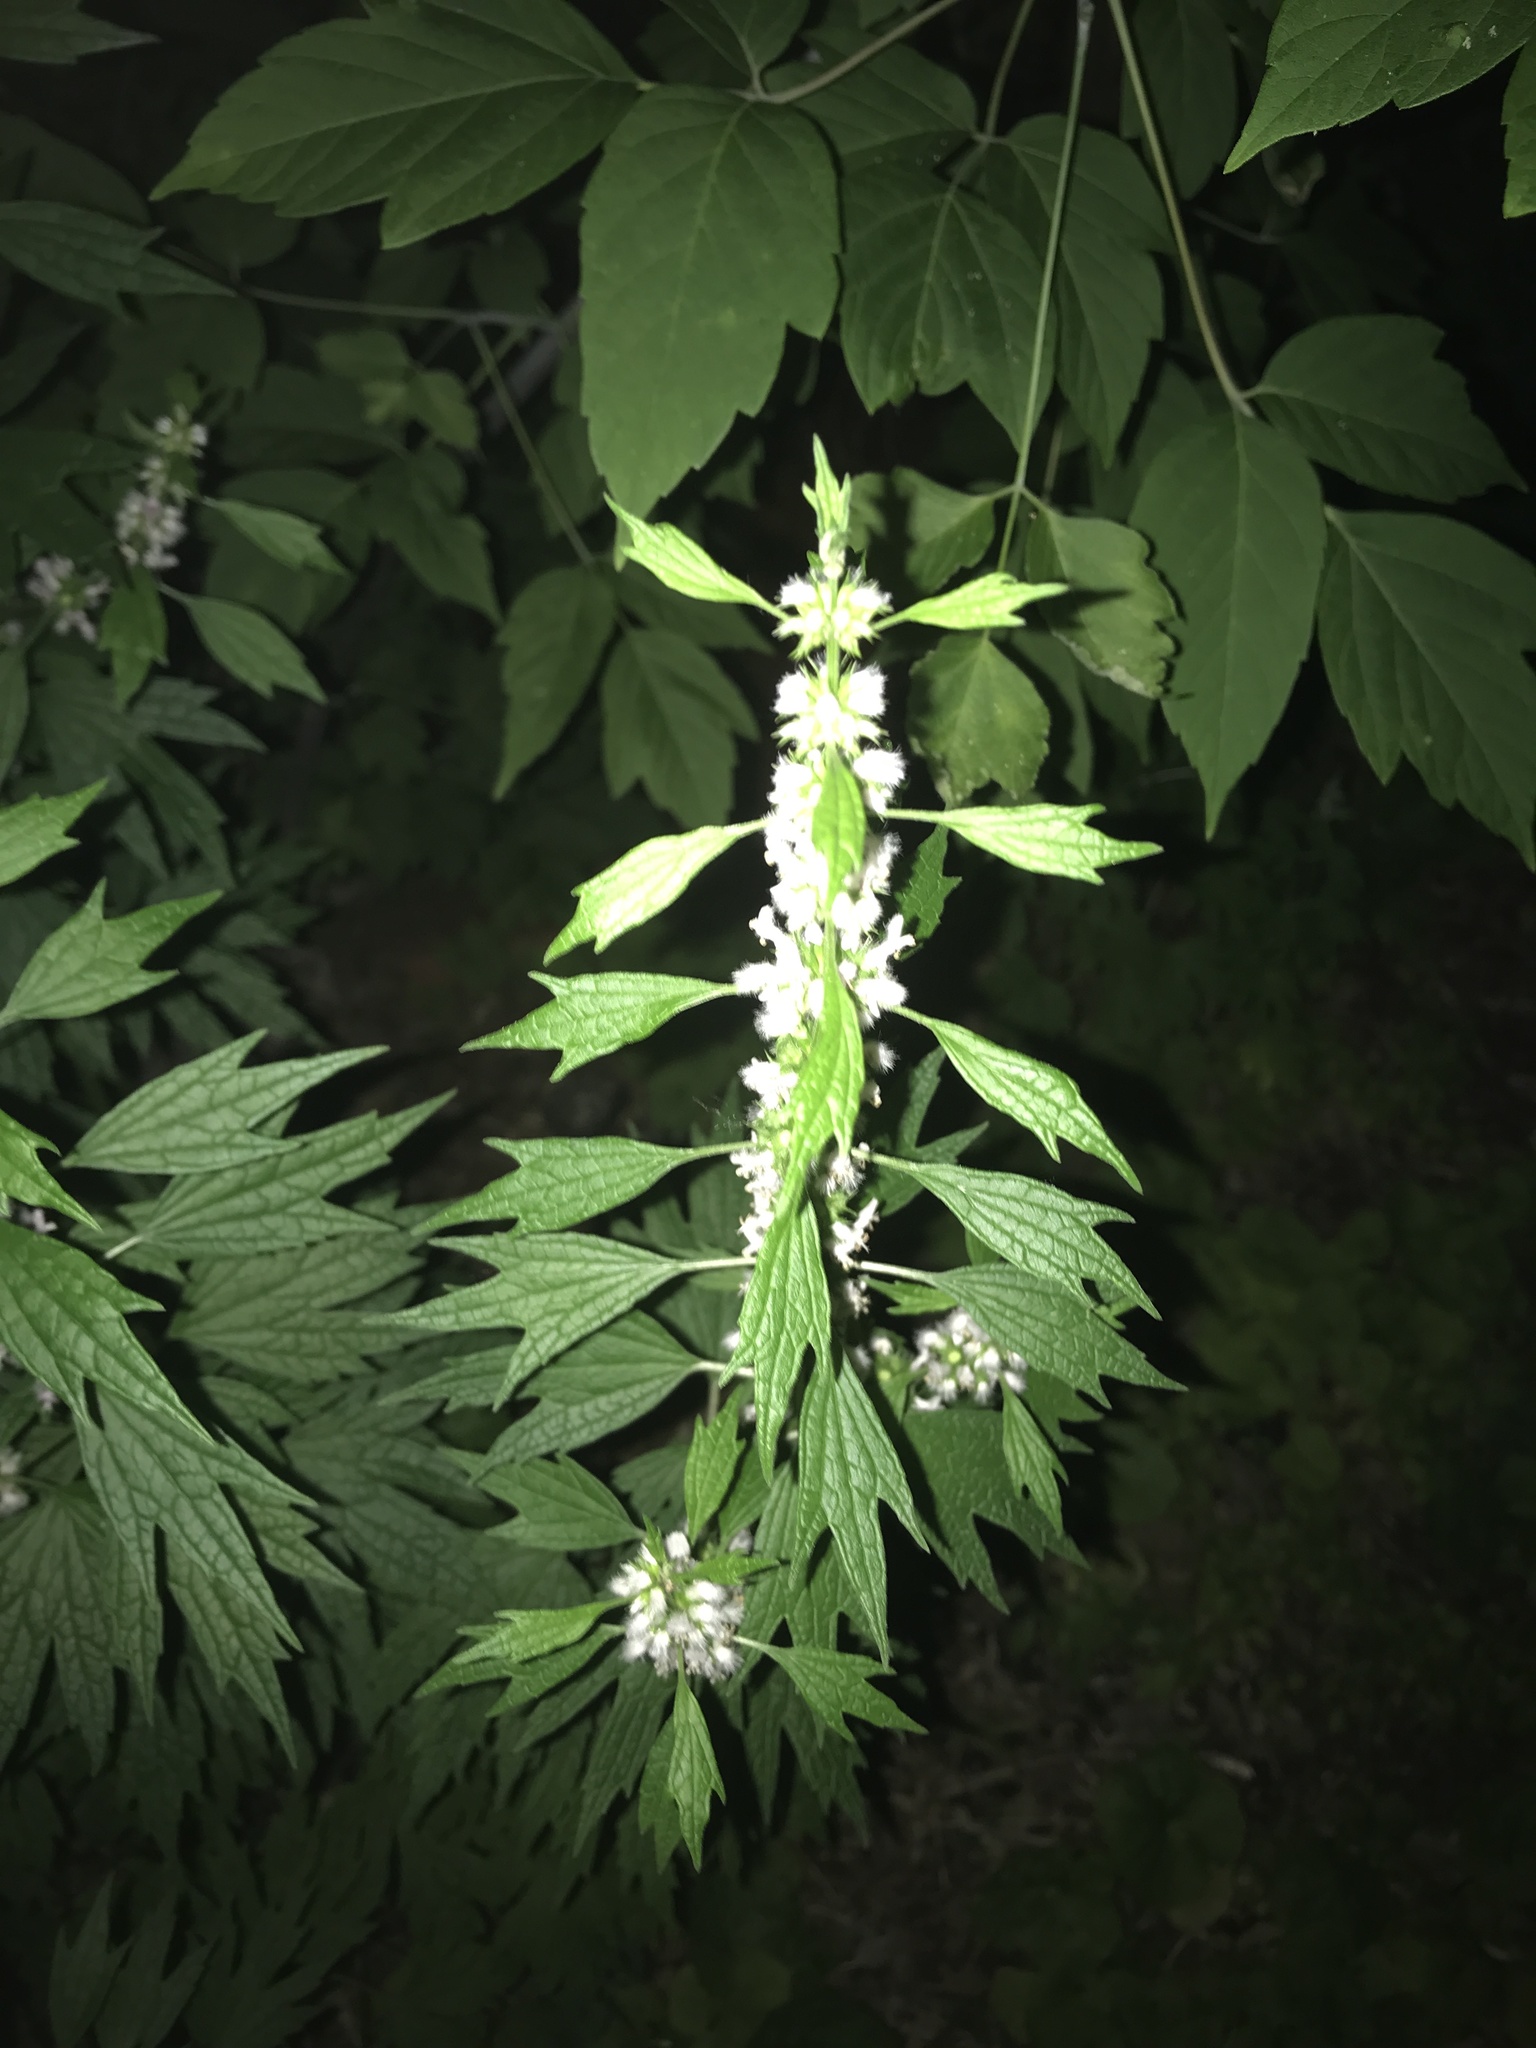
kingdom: Plantae
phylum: Tracheophyta
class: Magnoliopsida
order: Lamiales
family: Lamiaceae
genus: Leonurus
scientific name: Leonurus cardiaca
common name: Motherwort
